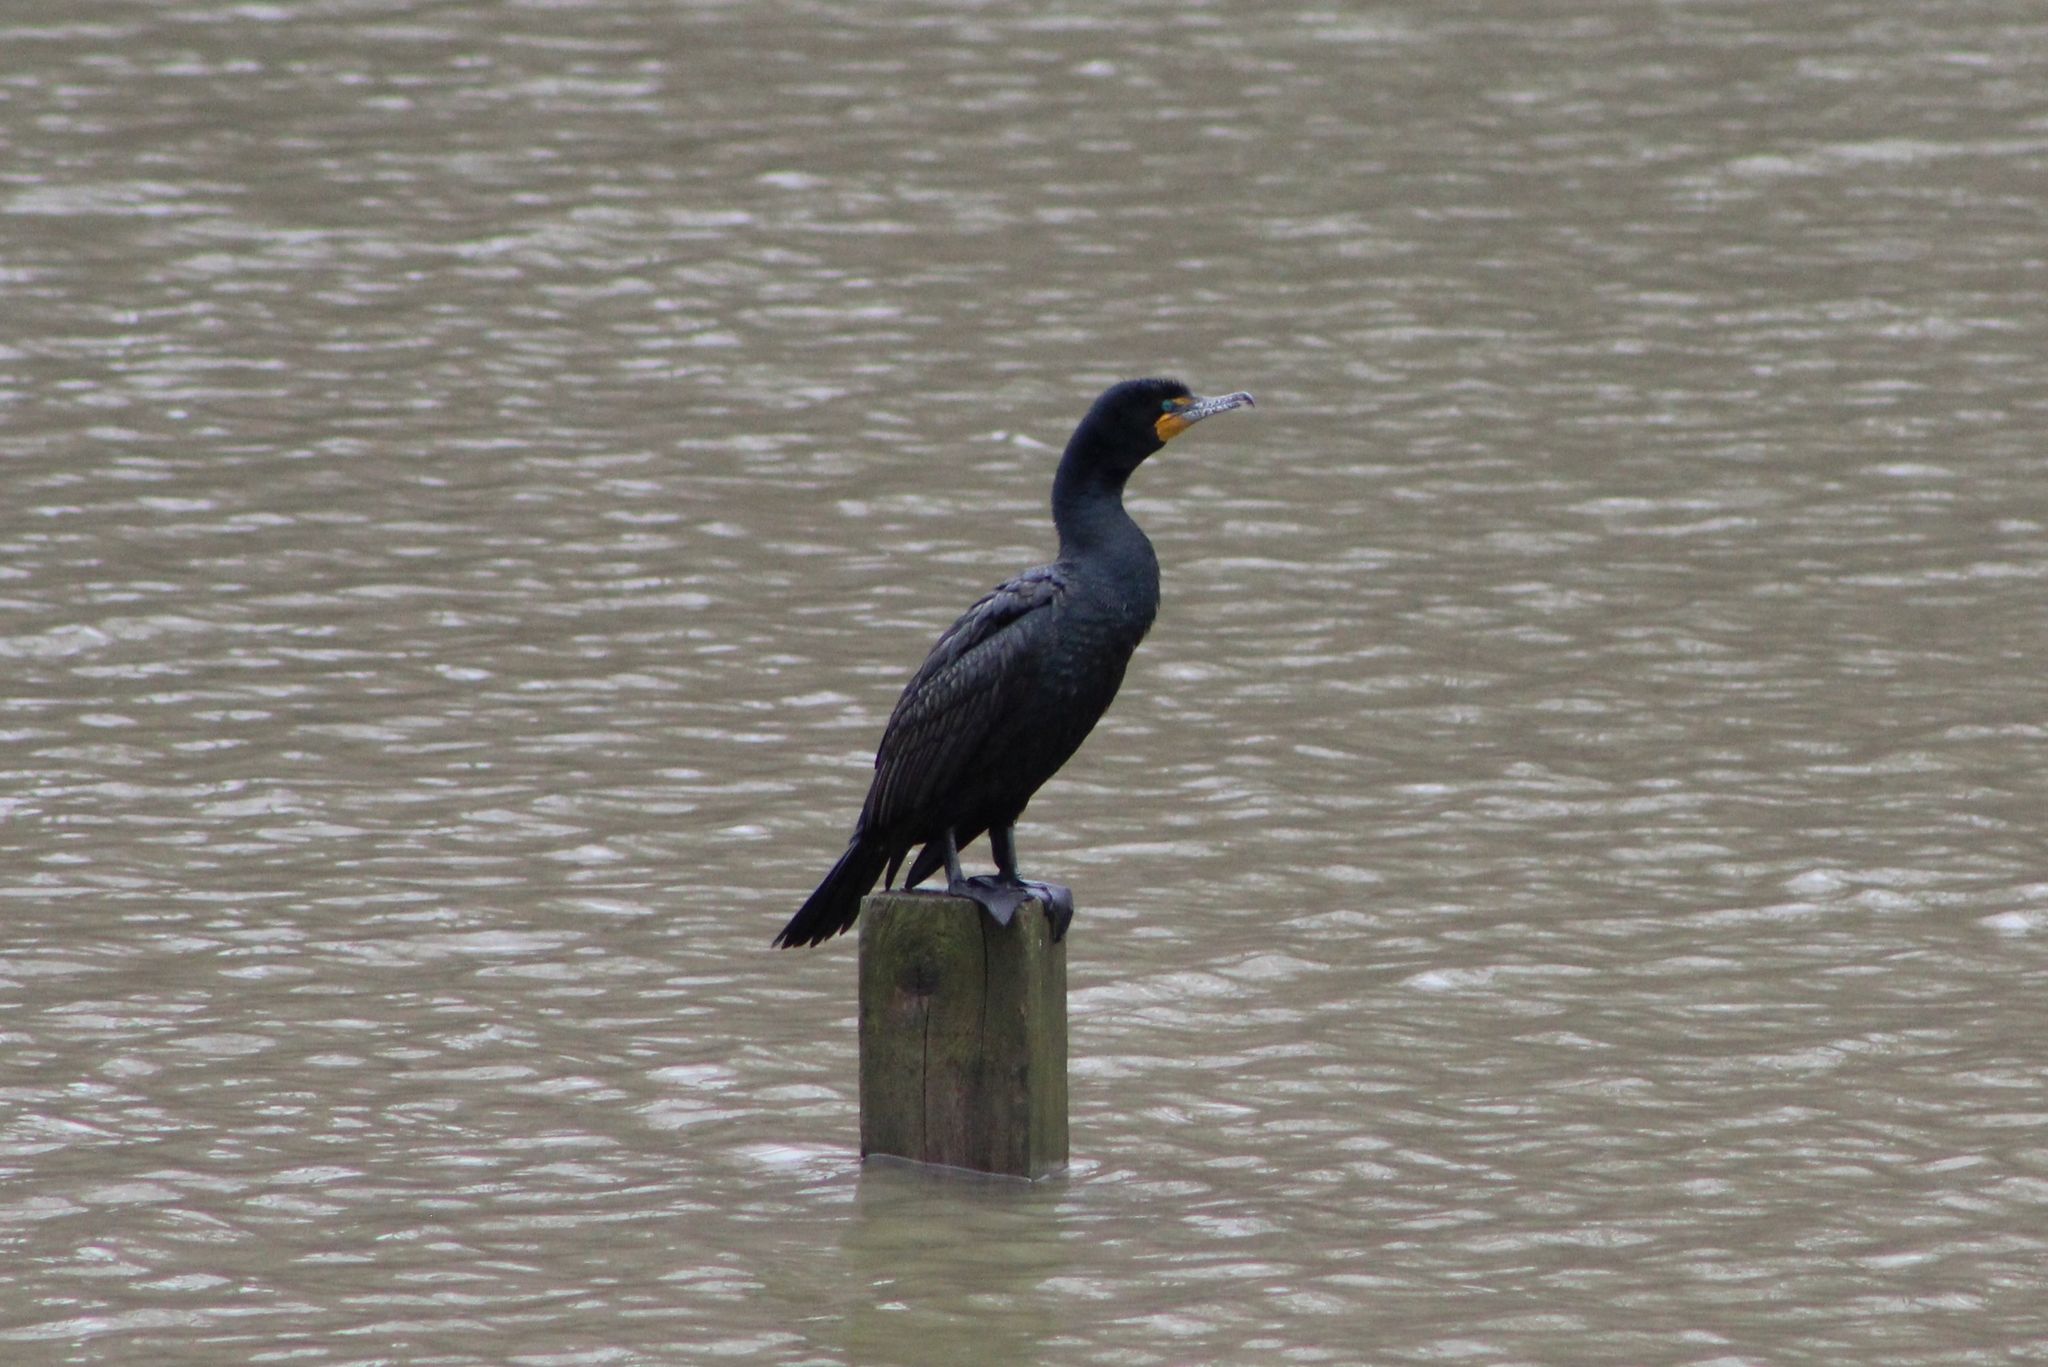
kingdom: Animalia
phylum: Chordata
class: Aves
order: Suliformes
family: Phalacrocoracidae
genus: Phalacrocorax
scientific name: Phalacrocorax auritus
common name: Double-crested cormorant
